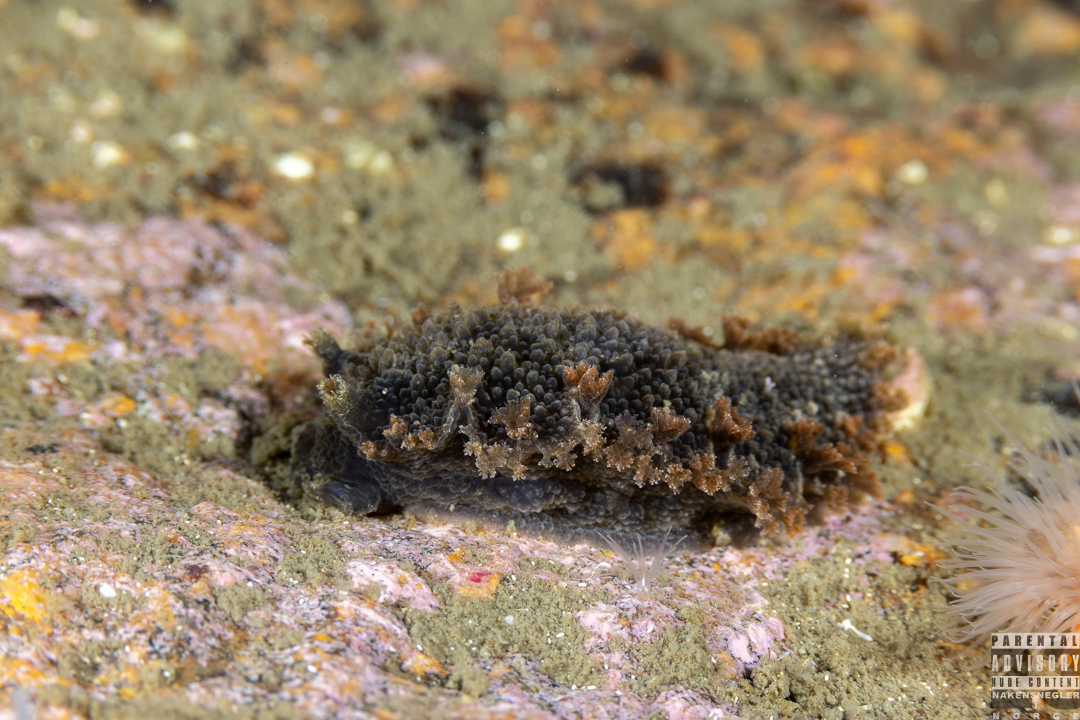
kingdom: Animalia
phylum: Mollusca
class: Gastropoda
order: Nudibranchia
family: Tritoniidae
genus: Tritonia
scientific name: Tritonia hombergii
